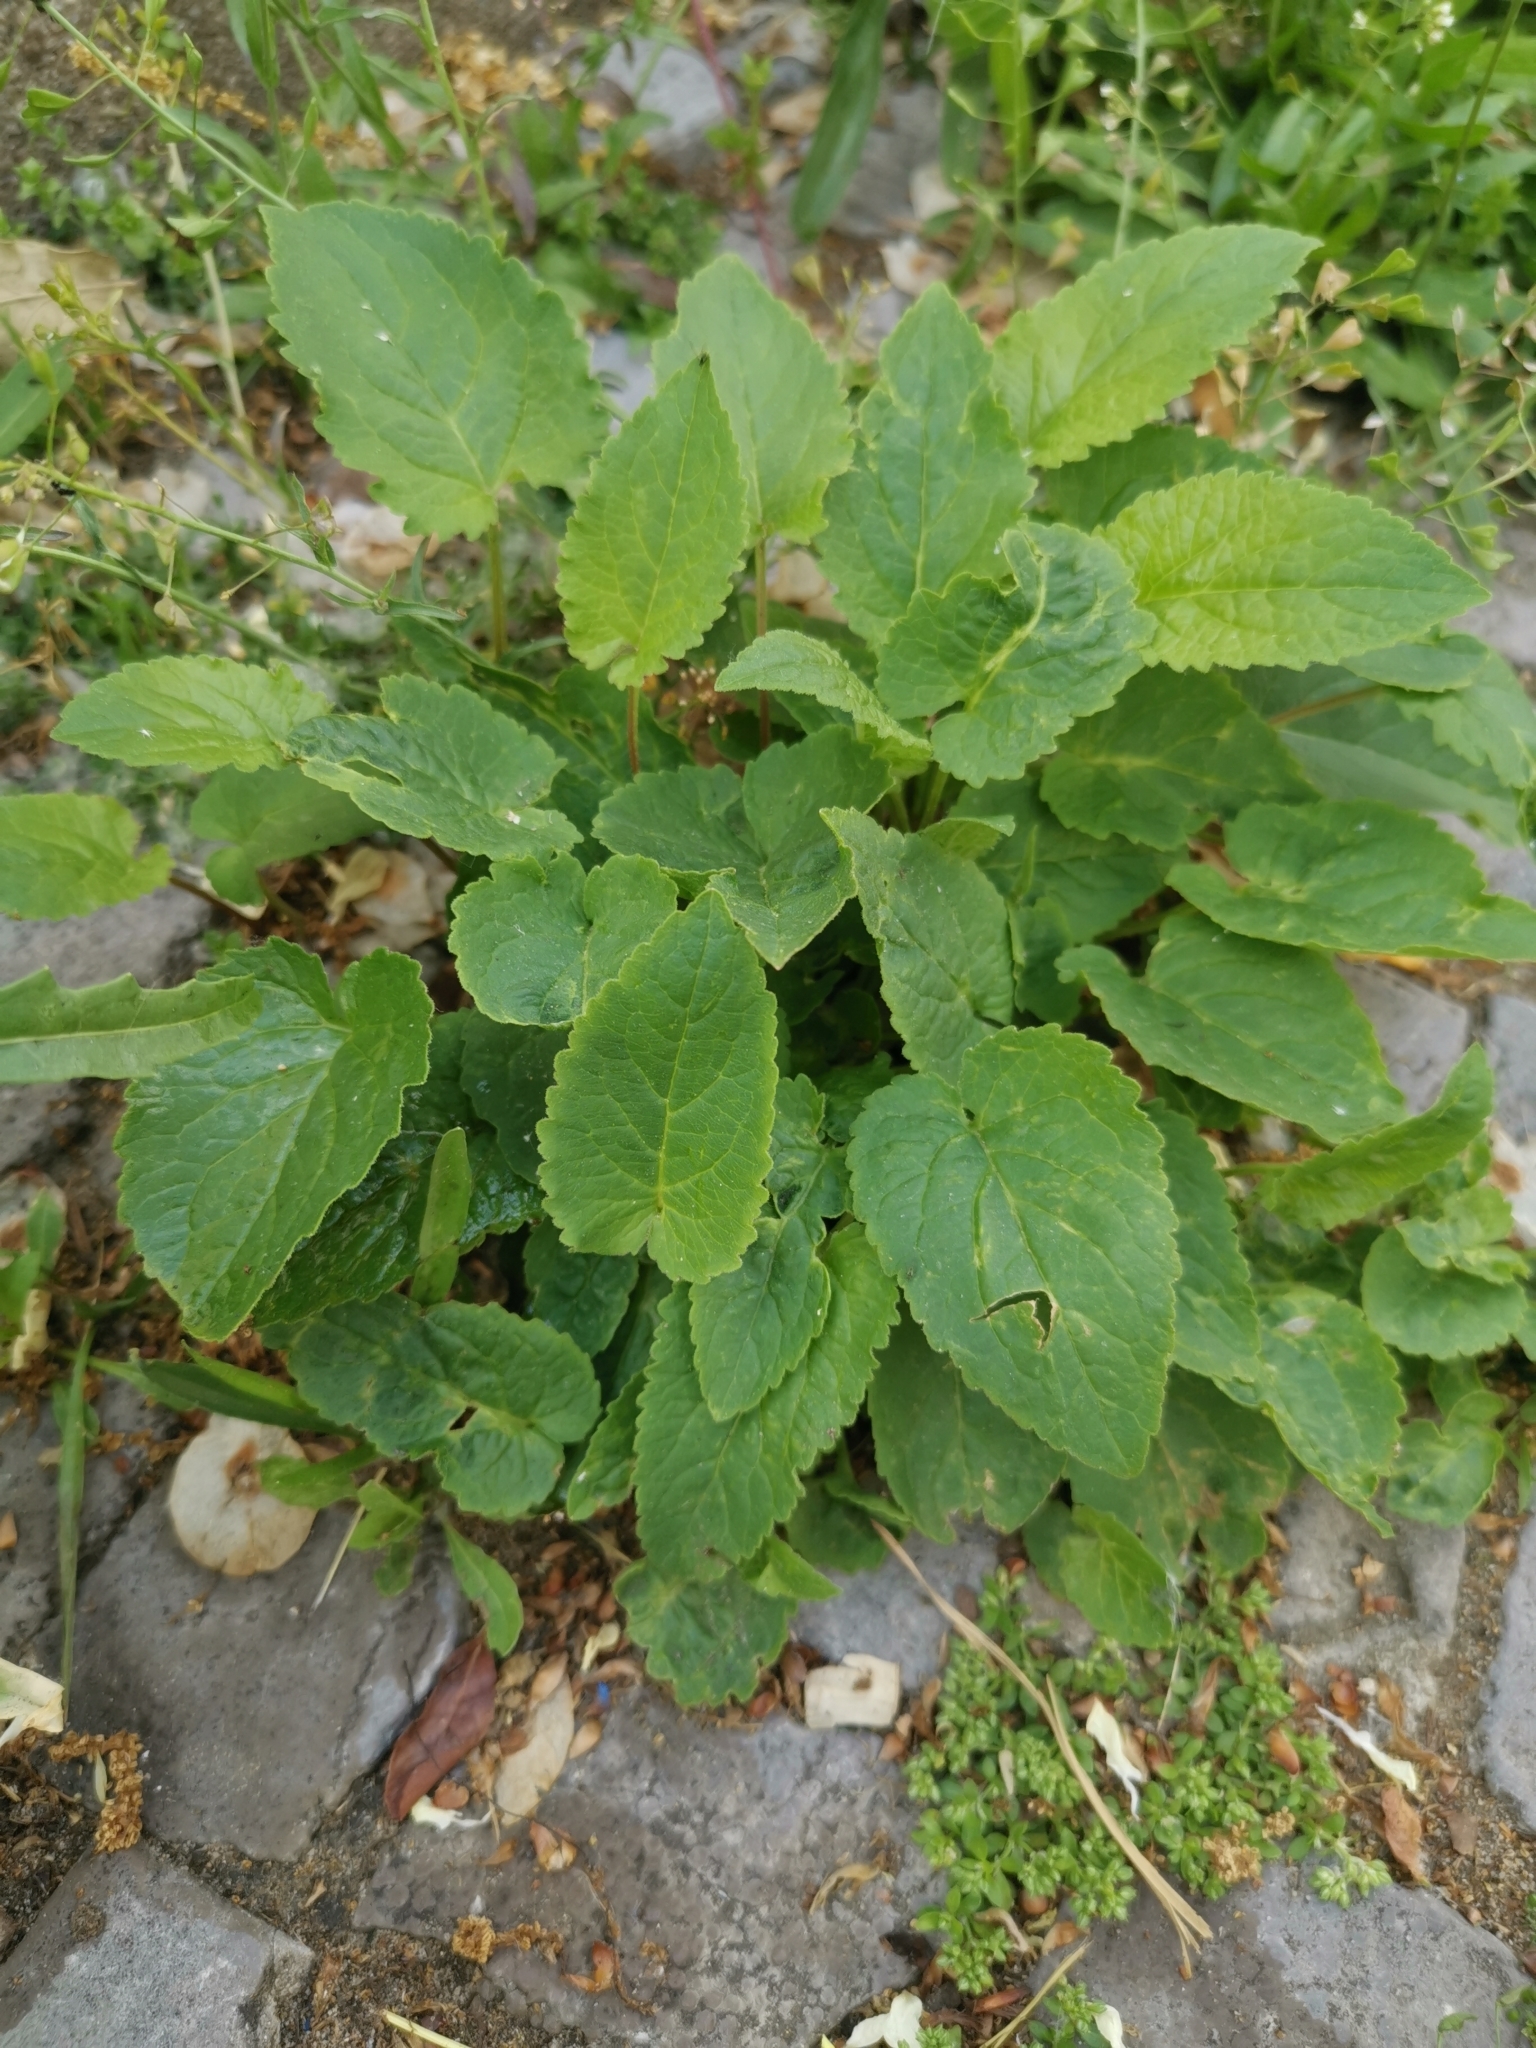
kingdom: Plantae
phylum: Tracheophyta
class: Magnoliopsida
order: Asterales
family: Campanulaceae
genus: Campanula
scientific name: Campanula rapunculoides
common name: Creeping bellflower
